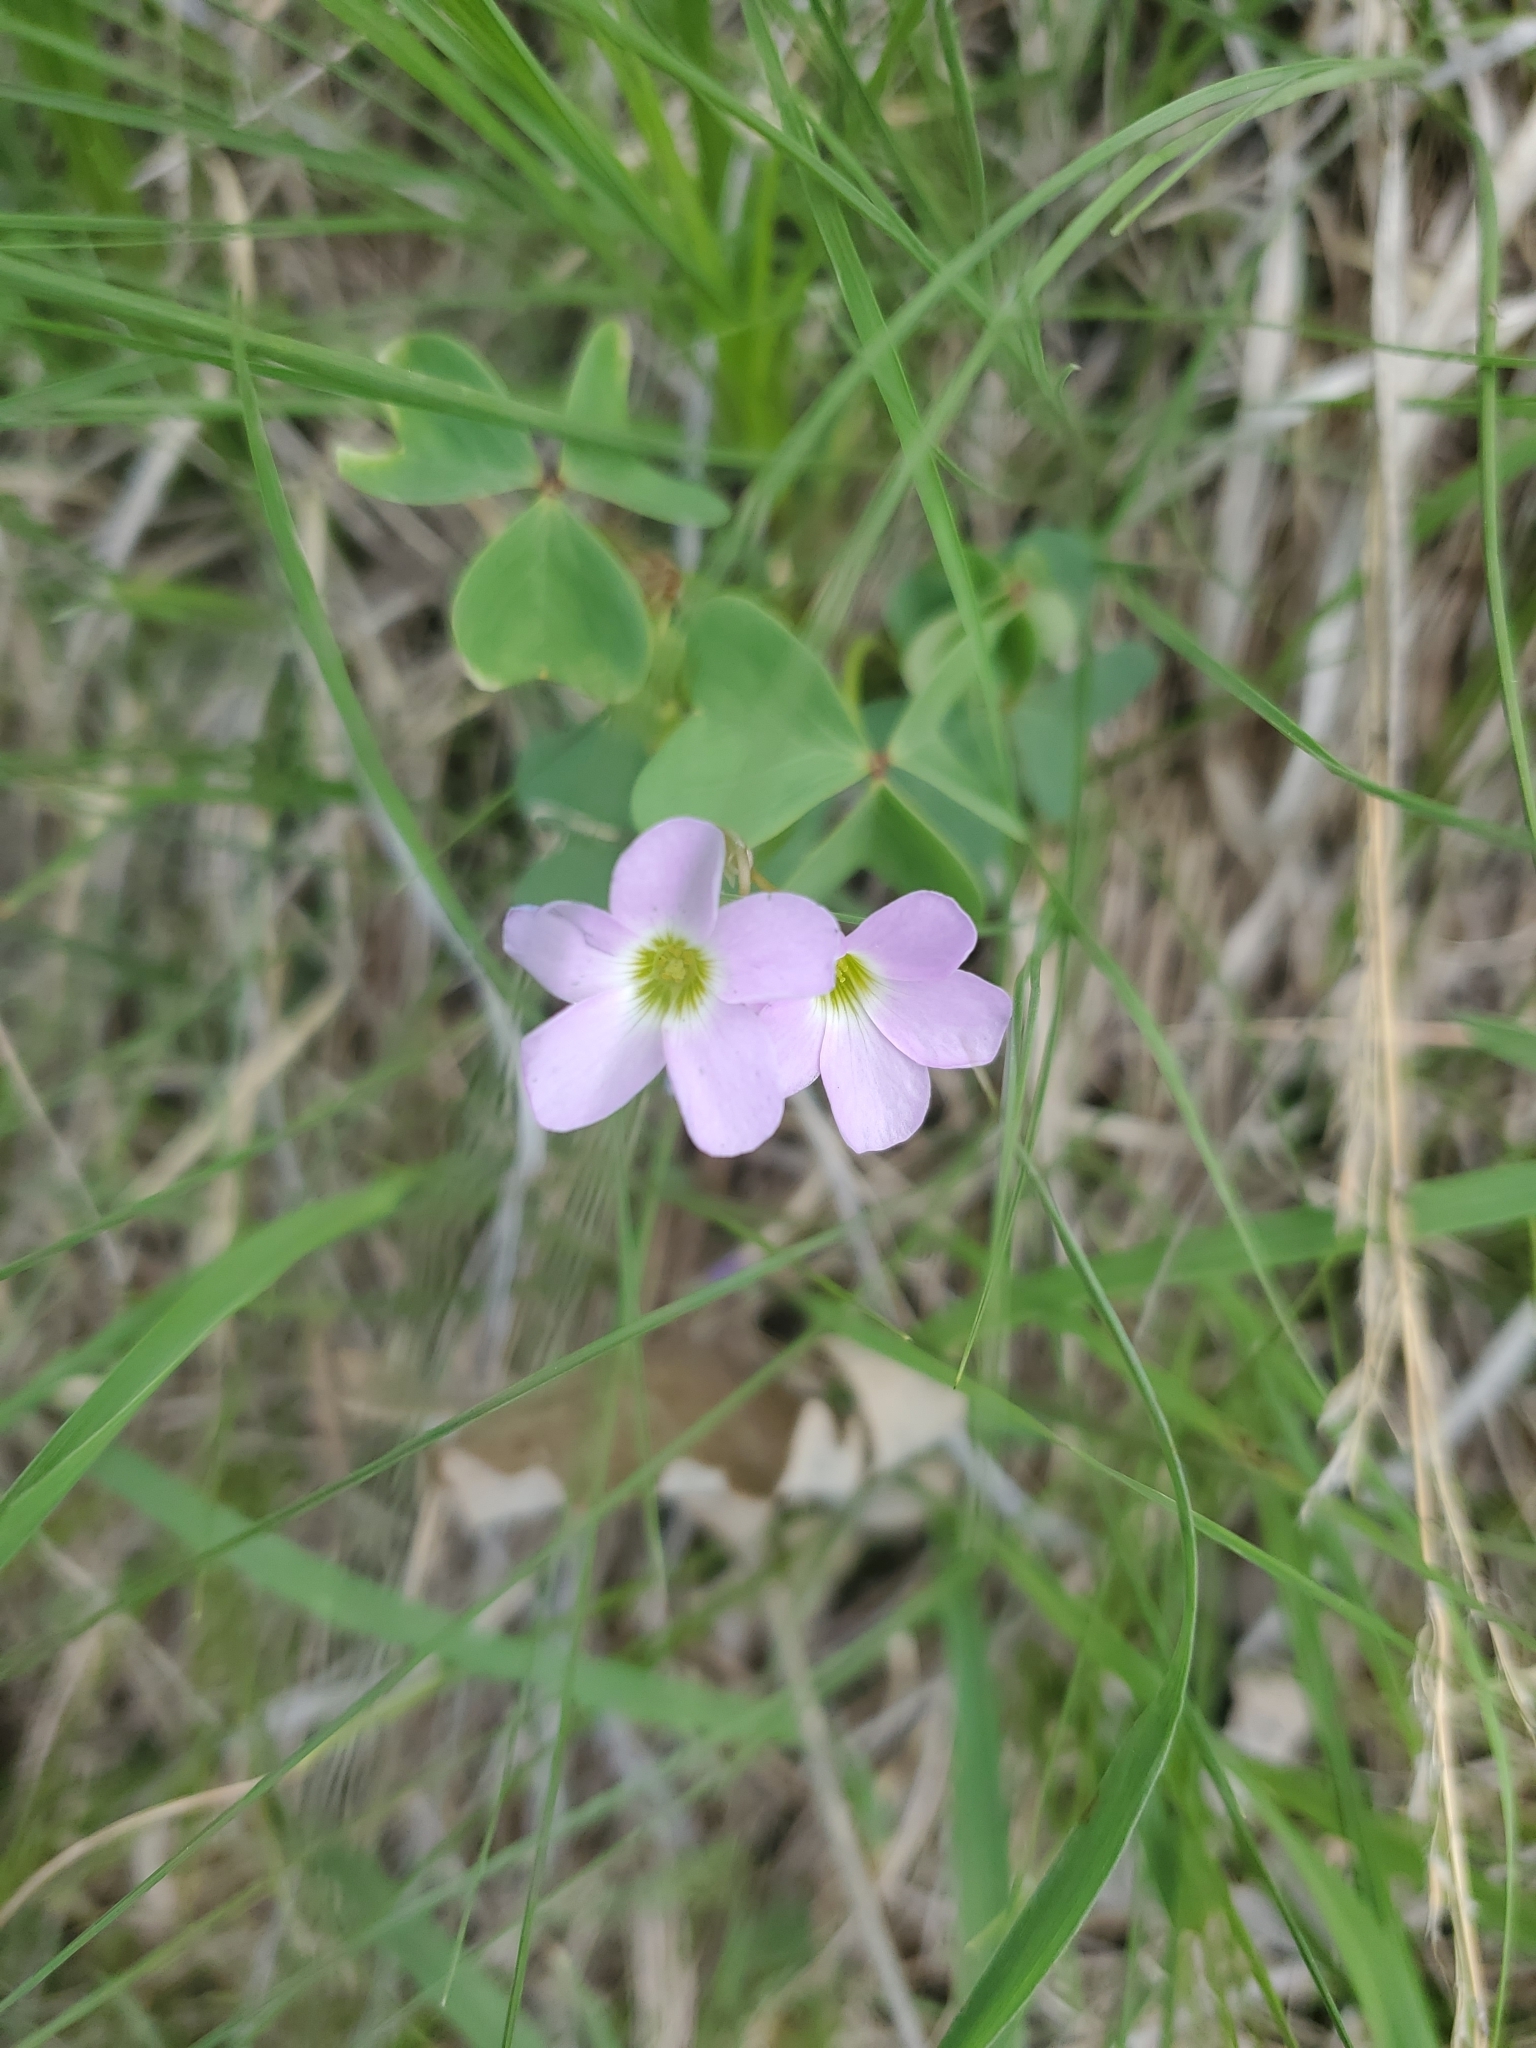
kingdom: Plantae
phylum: Tracheophyta
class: Magnoliopsida
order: Oxalidales
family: Oxalidaceae
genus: Oxalis
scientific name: Oxalis violacea
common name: Violet wood-sorrel
